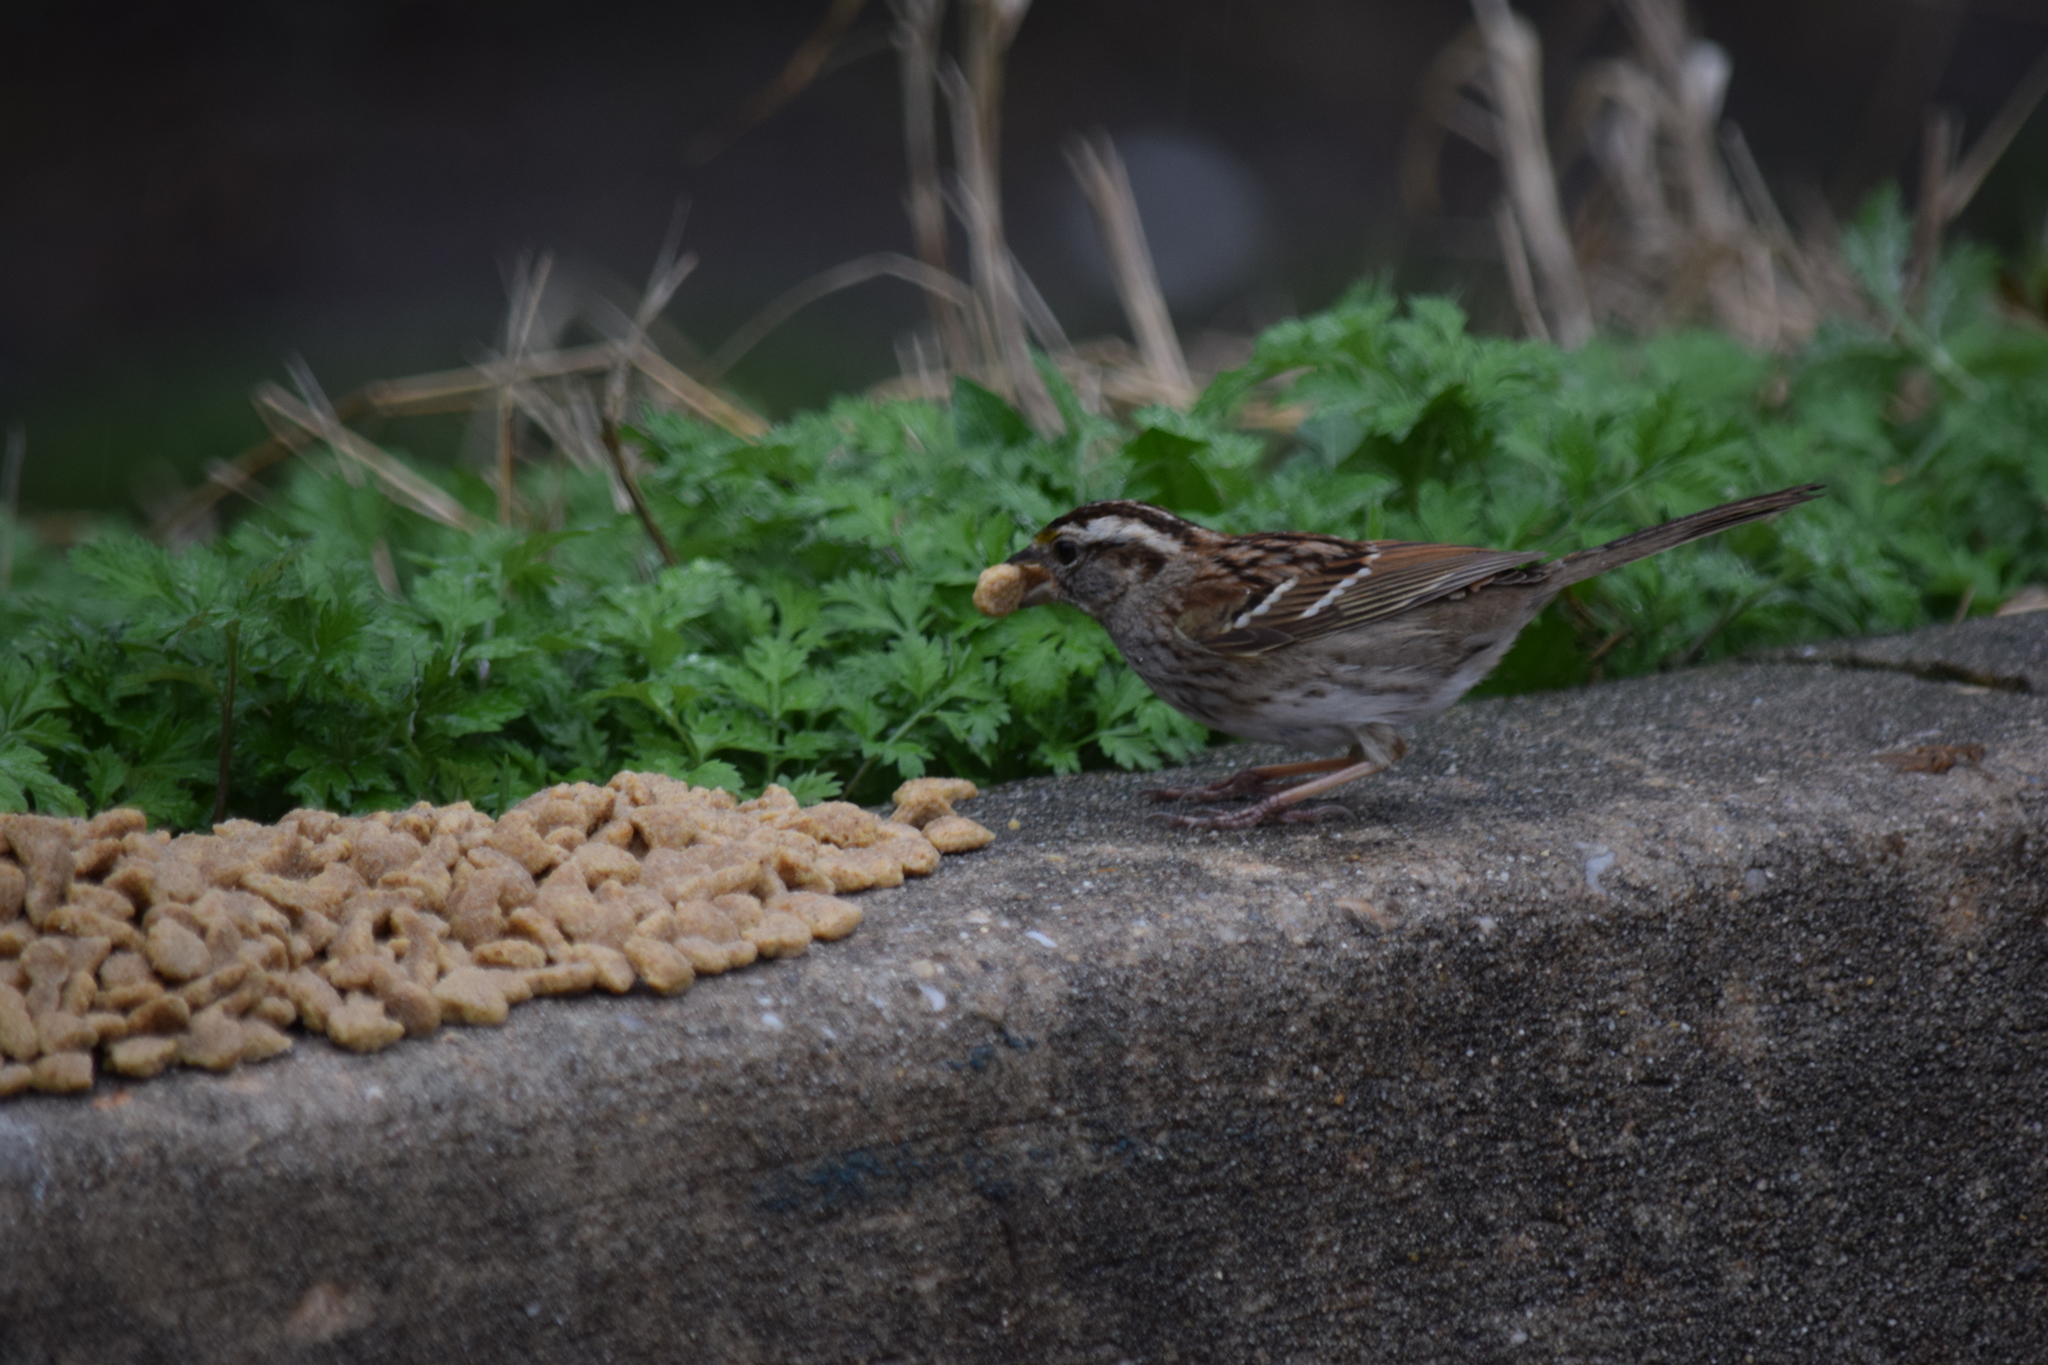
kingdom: Animalia
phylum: Chordata
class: Aves
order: Passeriformes
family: Passerellidae
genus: Zonotrichia
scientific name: Zonotrichia albicollis
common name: White-throated sparrow
